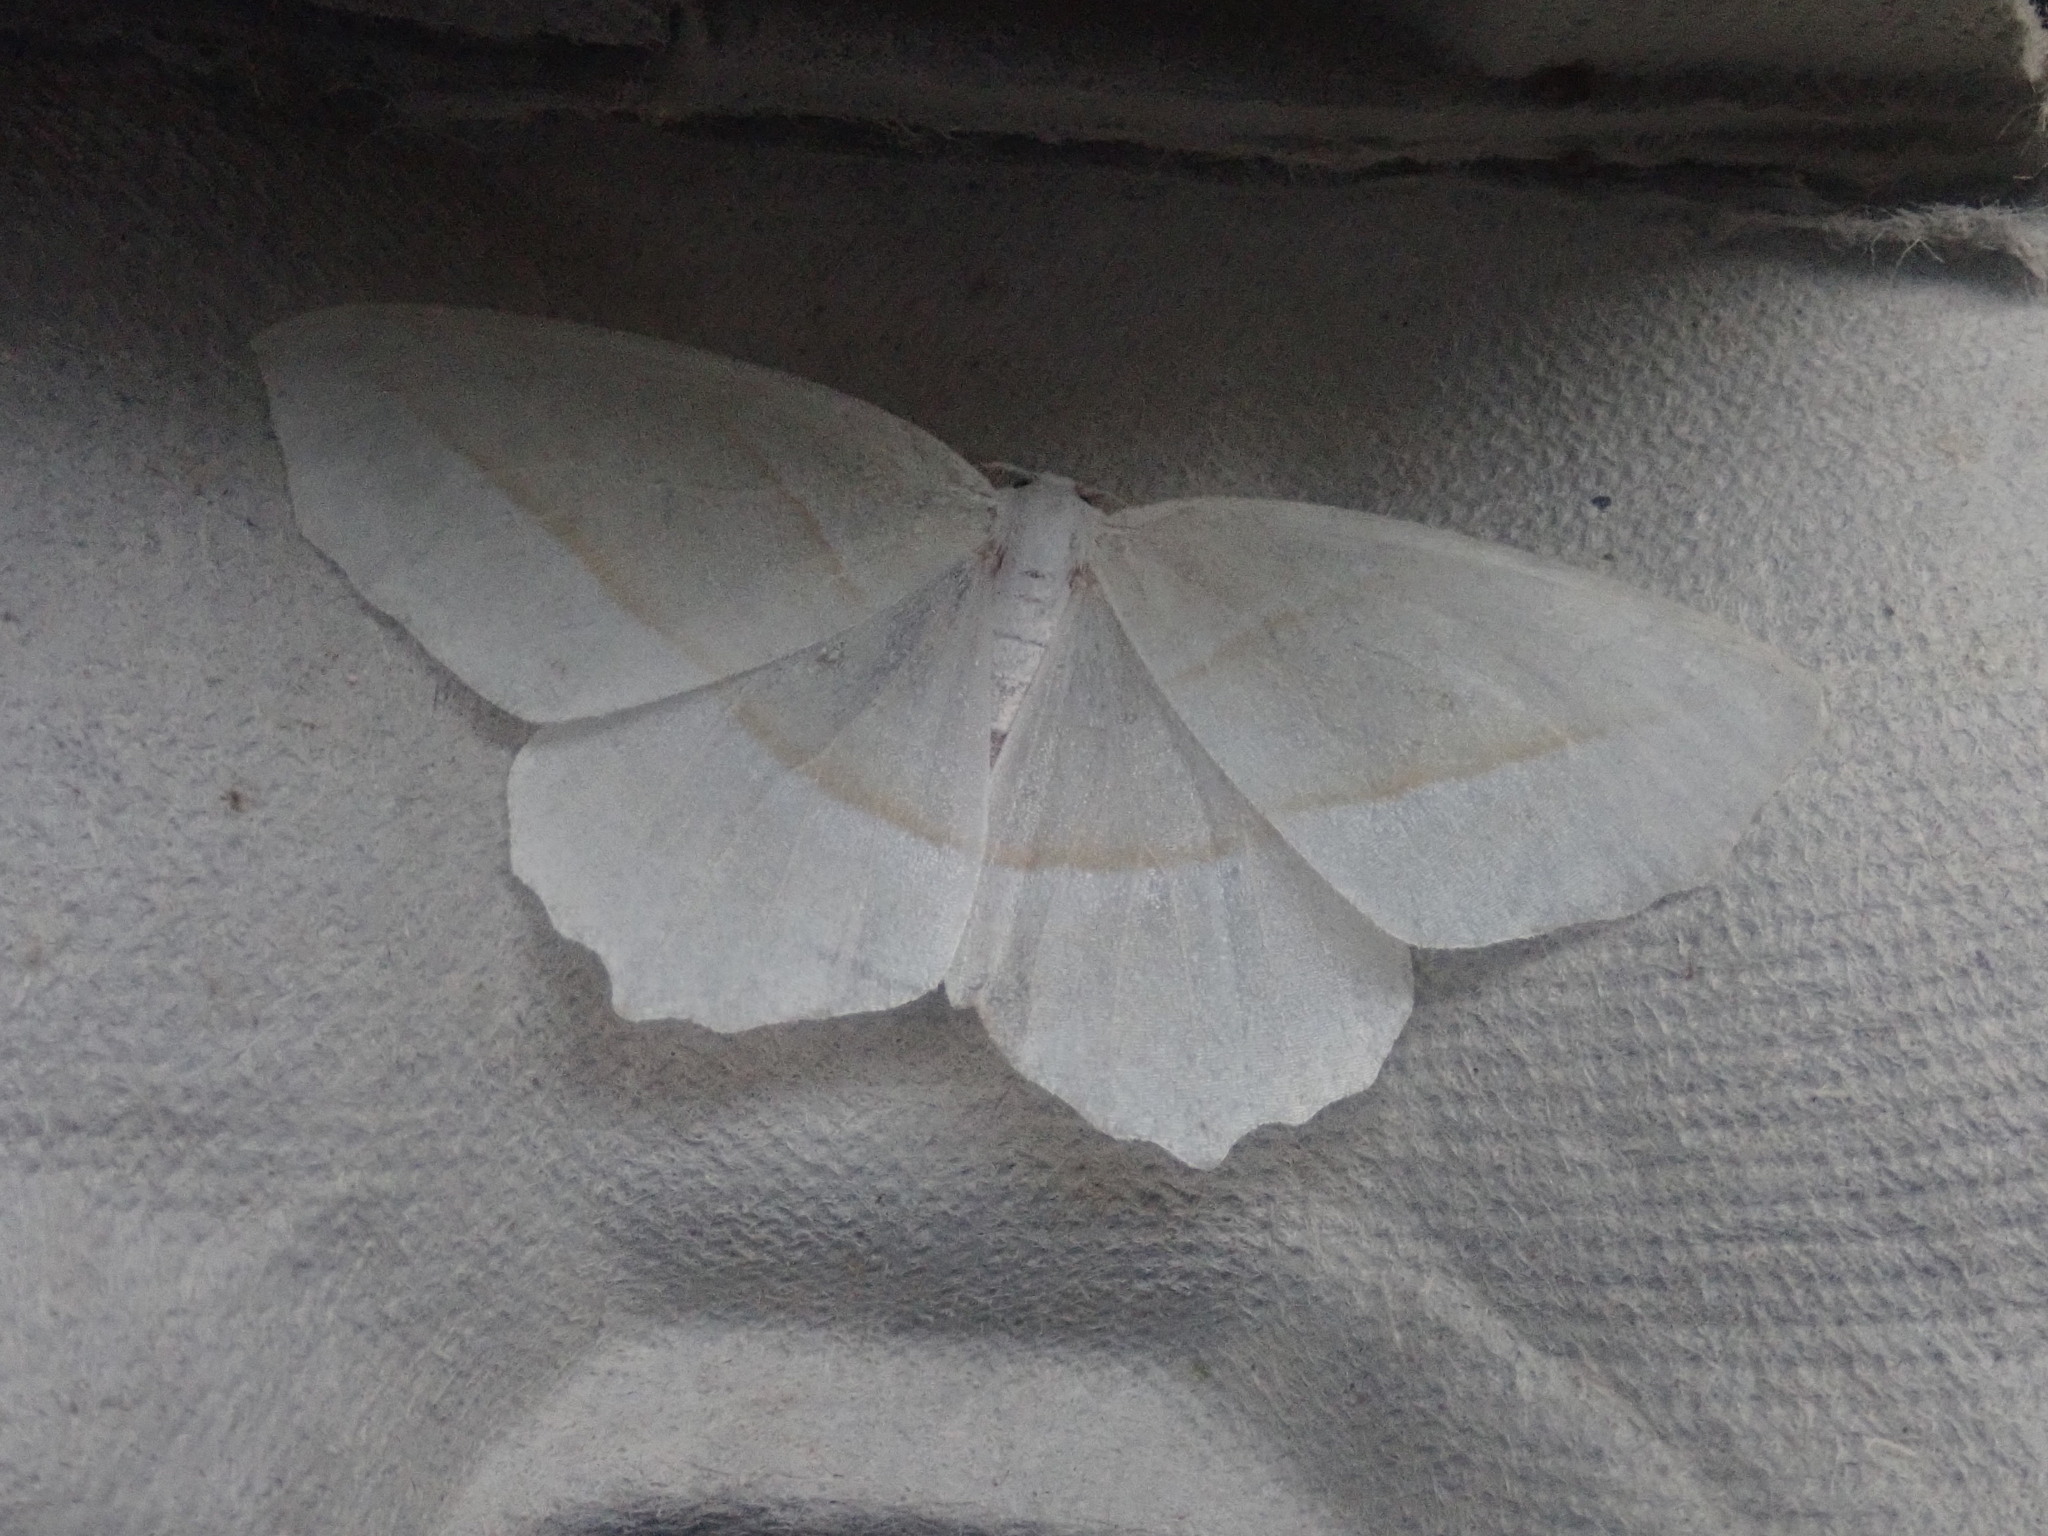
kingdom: Animalia
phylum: Arthropoda
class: Insecta
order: Lepidoptera
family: Geometridae
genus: Campaea
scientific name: Campaea perlata
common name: Fringed looper
